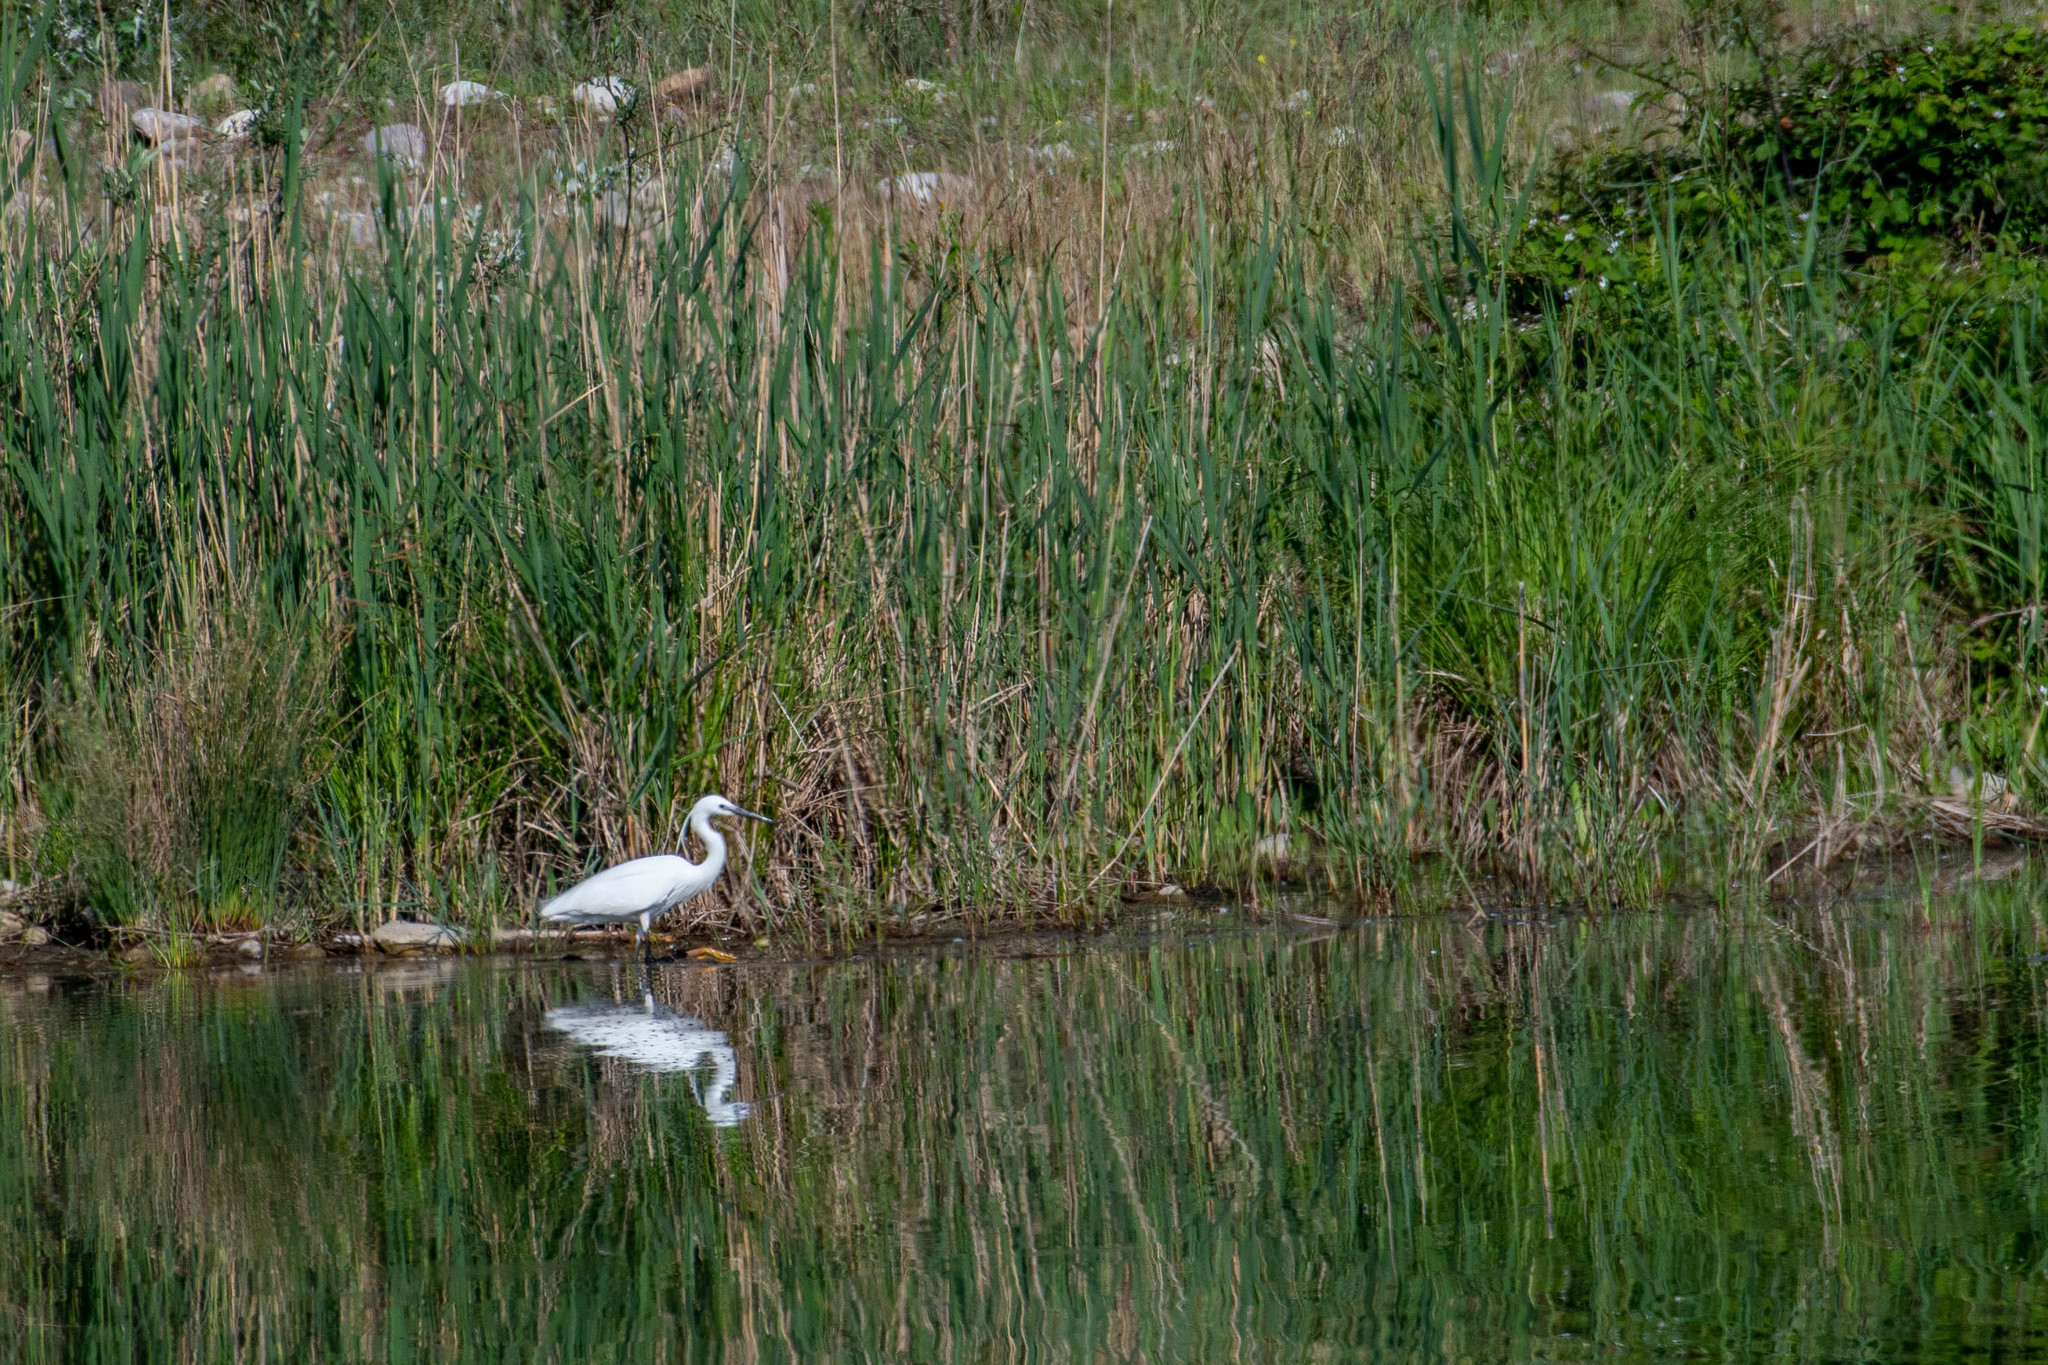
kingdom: Animalia
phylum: Chordata
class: Aves
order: Pelecaniformes
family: Ardeidae
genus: Egretta
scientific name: Egretta garzetta
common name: Little egret
